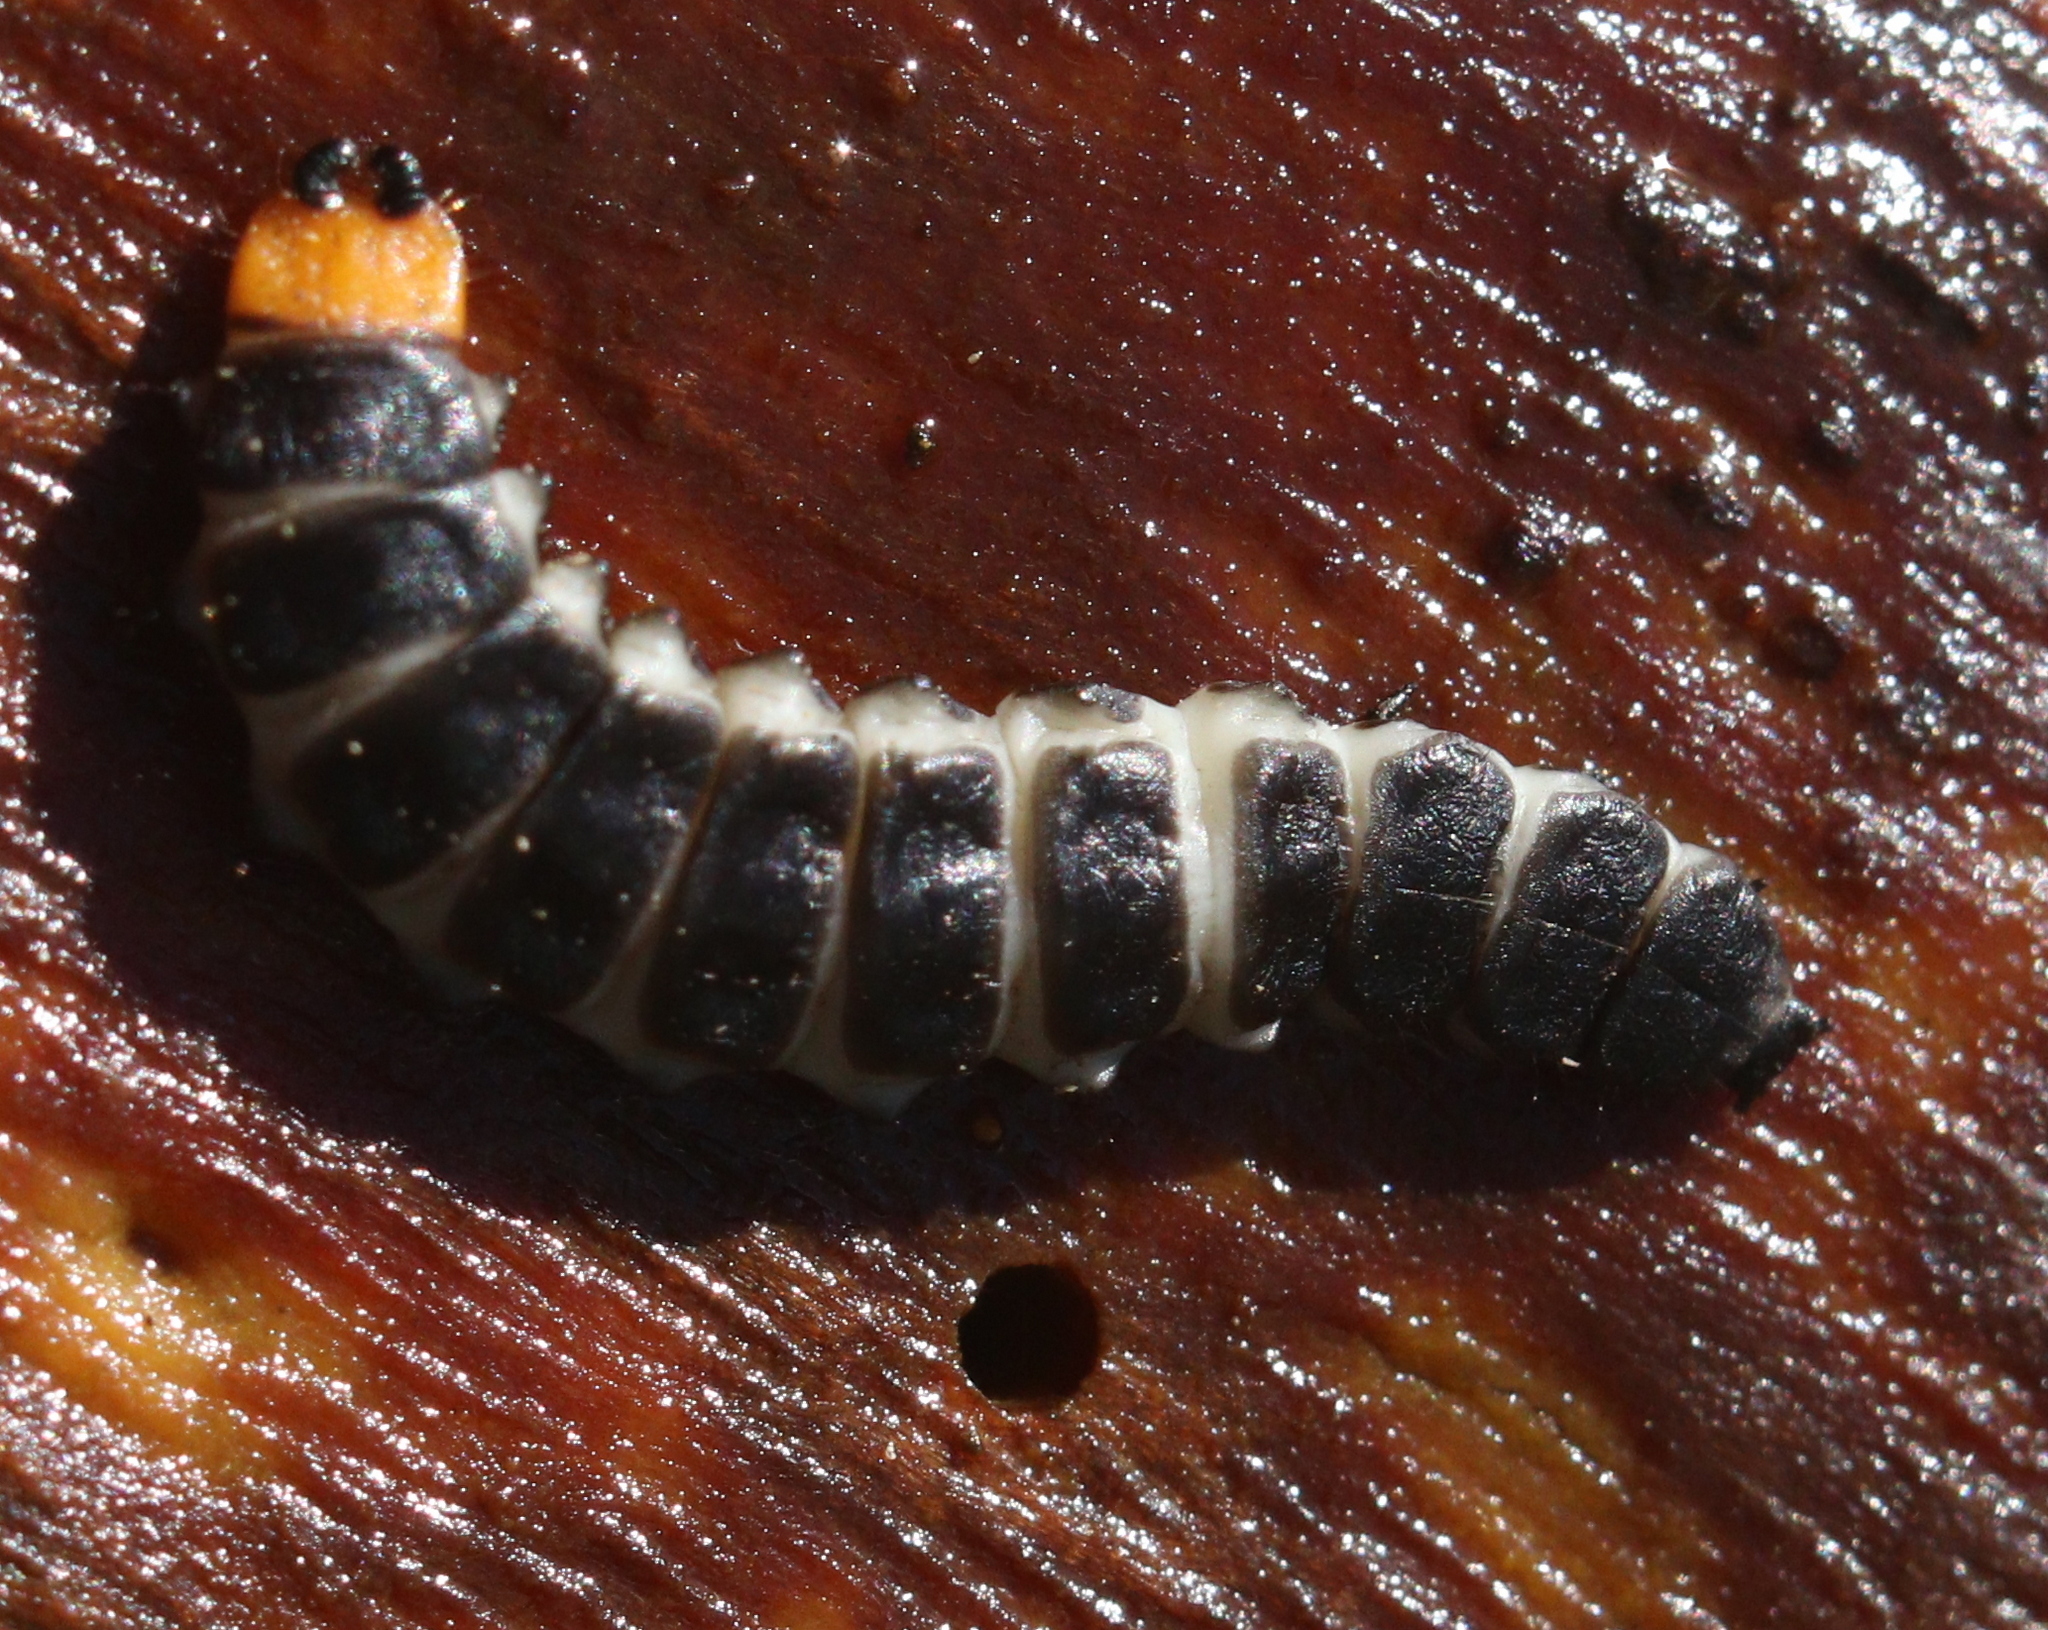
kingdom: Animalia
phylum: Arthropoda
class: Insecta
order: Coleoptera
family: Lycidae
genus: Lygistopterus
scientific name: Lygistopterus sanguineus
